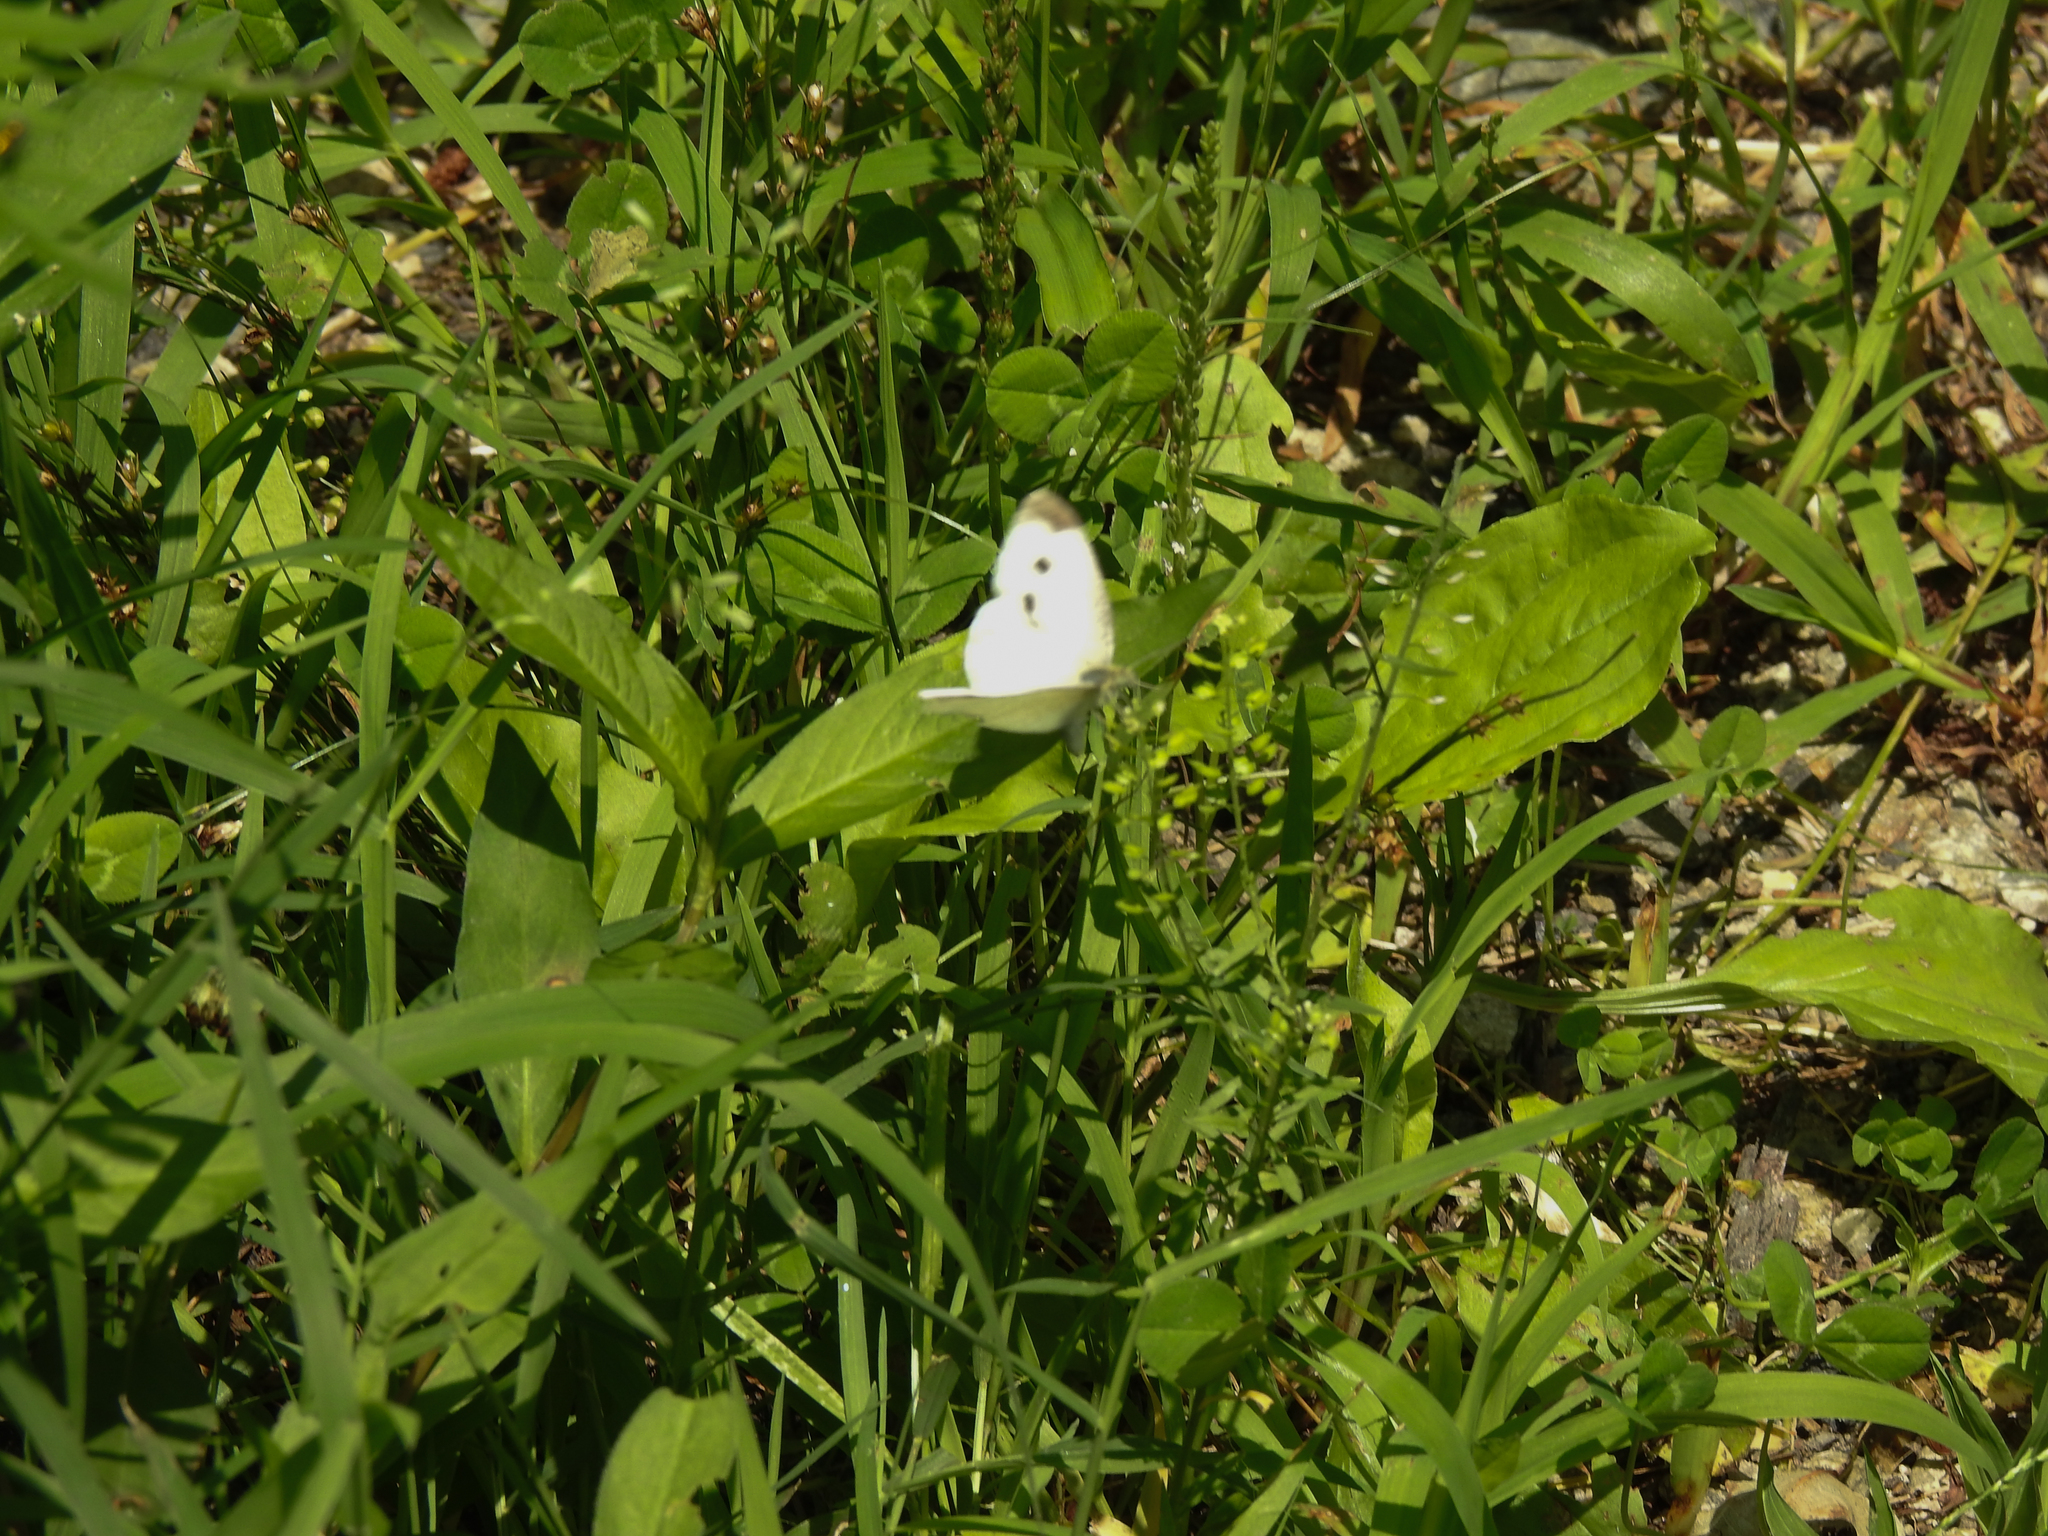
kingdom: Animalia
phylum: Arthropoda
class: Insecta
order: Lepidoptera
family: Pieridae
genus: Pieris
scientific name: Pieris rapae
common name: Small white
